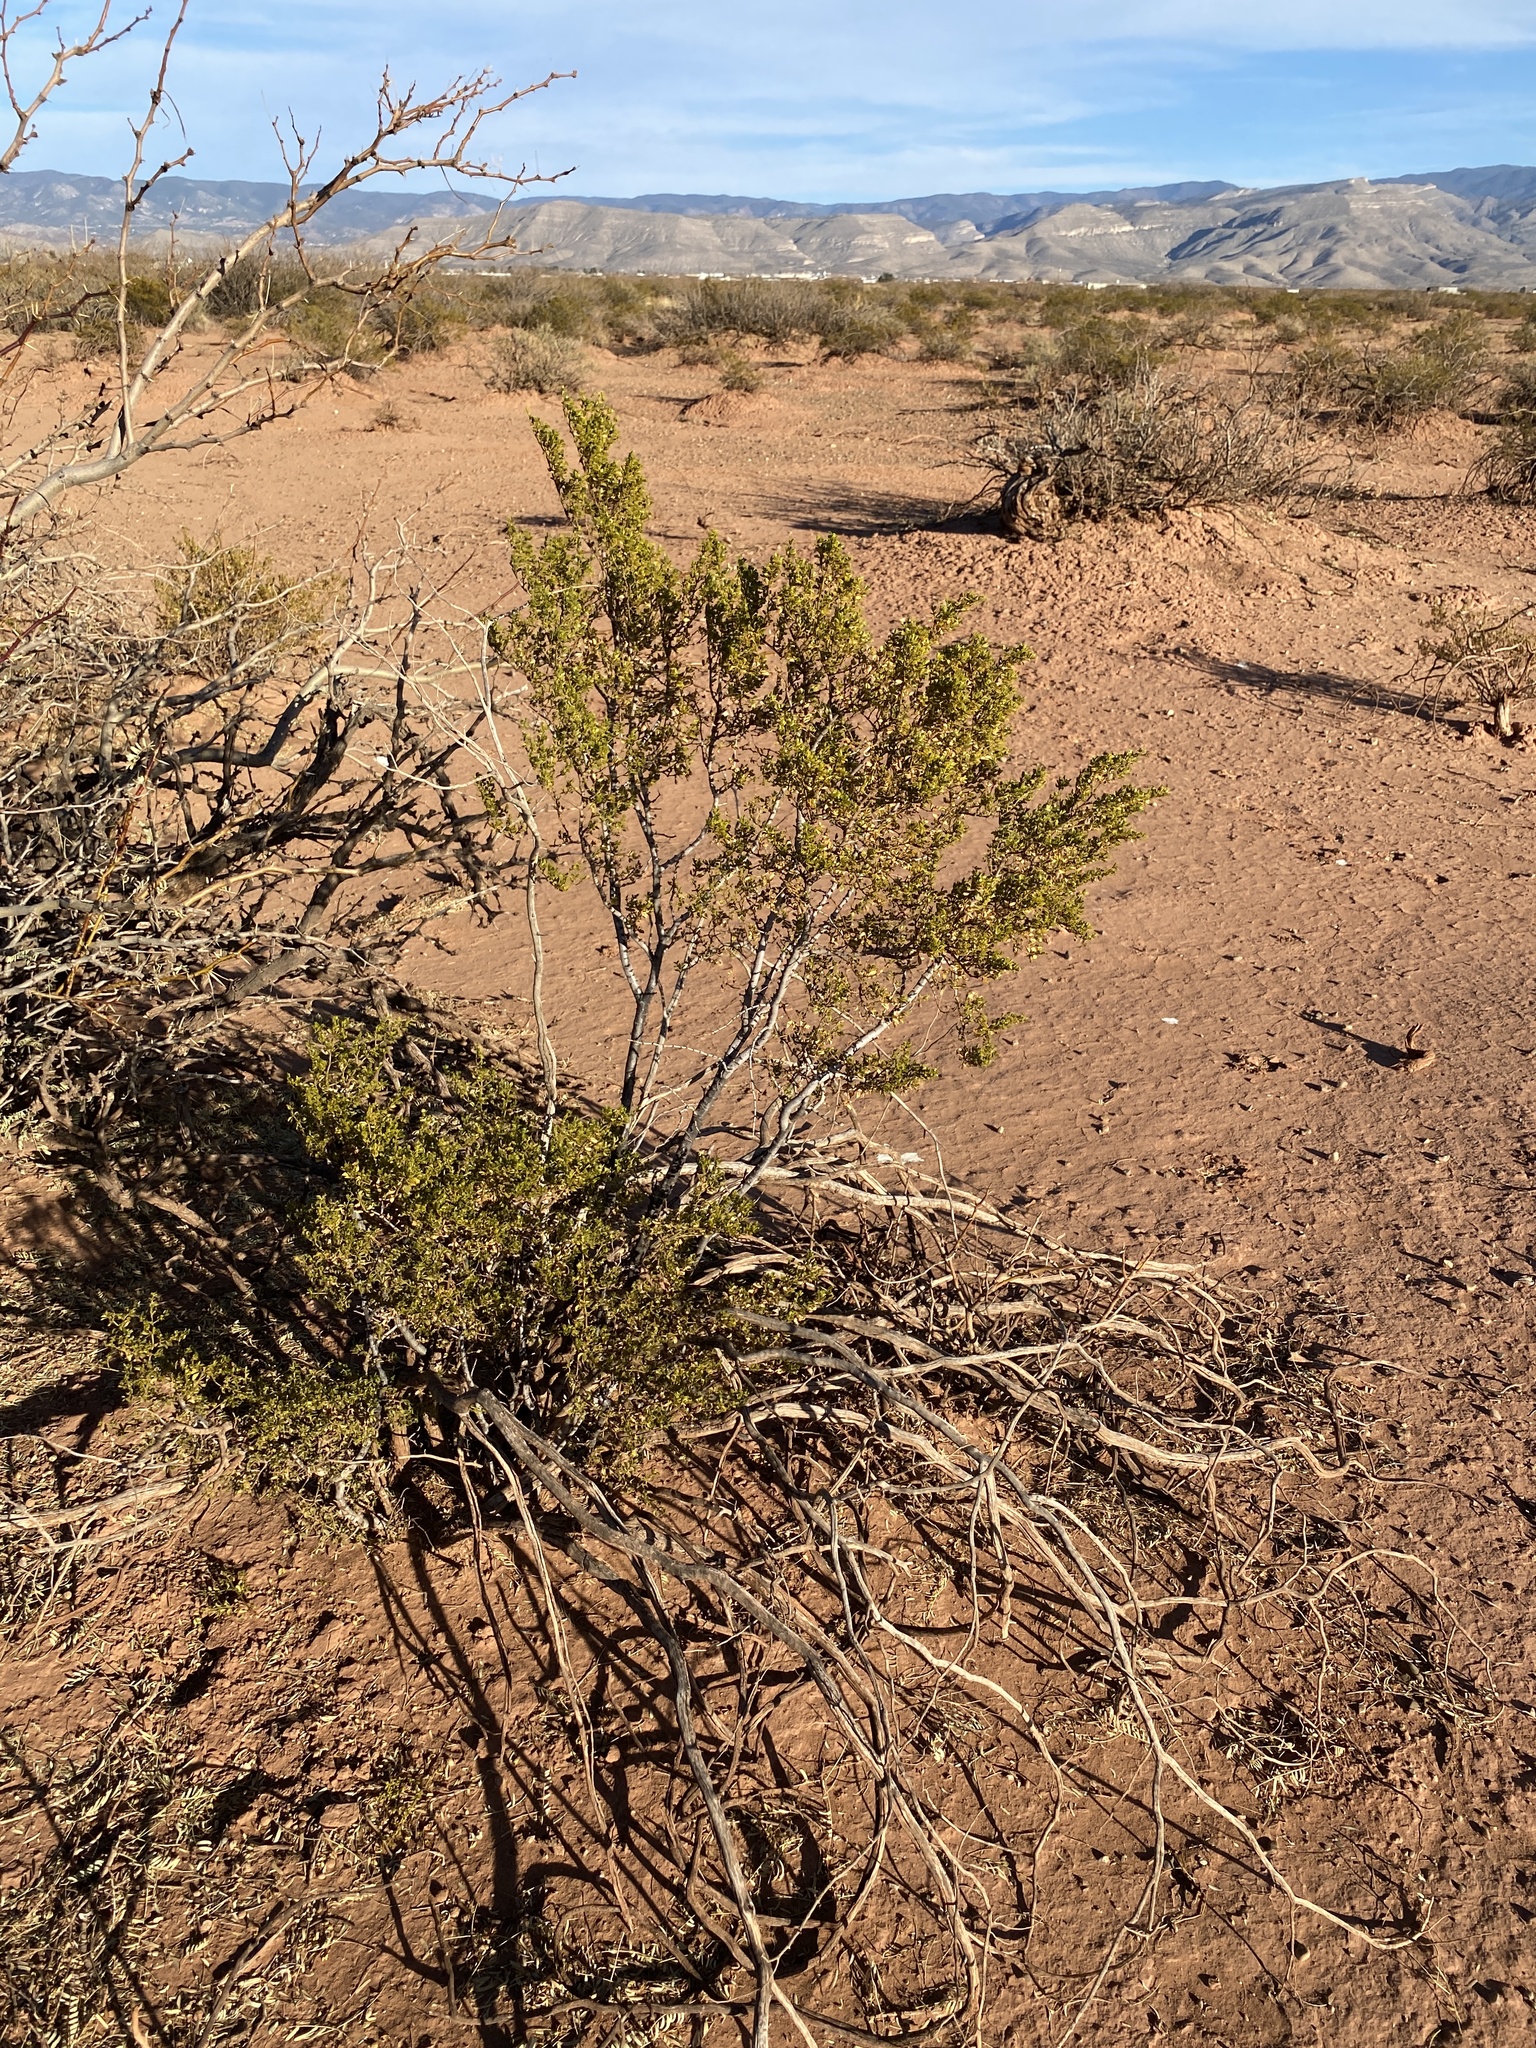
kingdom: Plantae
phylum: Tracheophyta
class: Magnoliopsida
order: Zygophyllales
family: Zygophyllaceae
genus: Larrea
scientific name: Larrea tridentata
